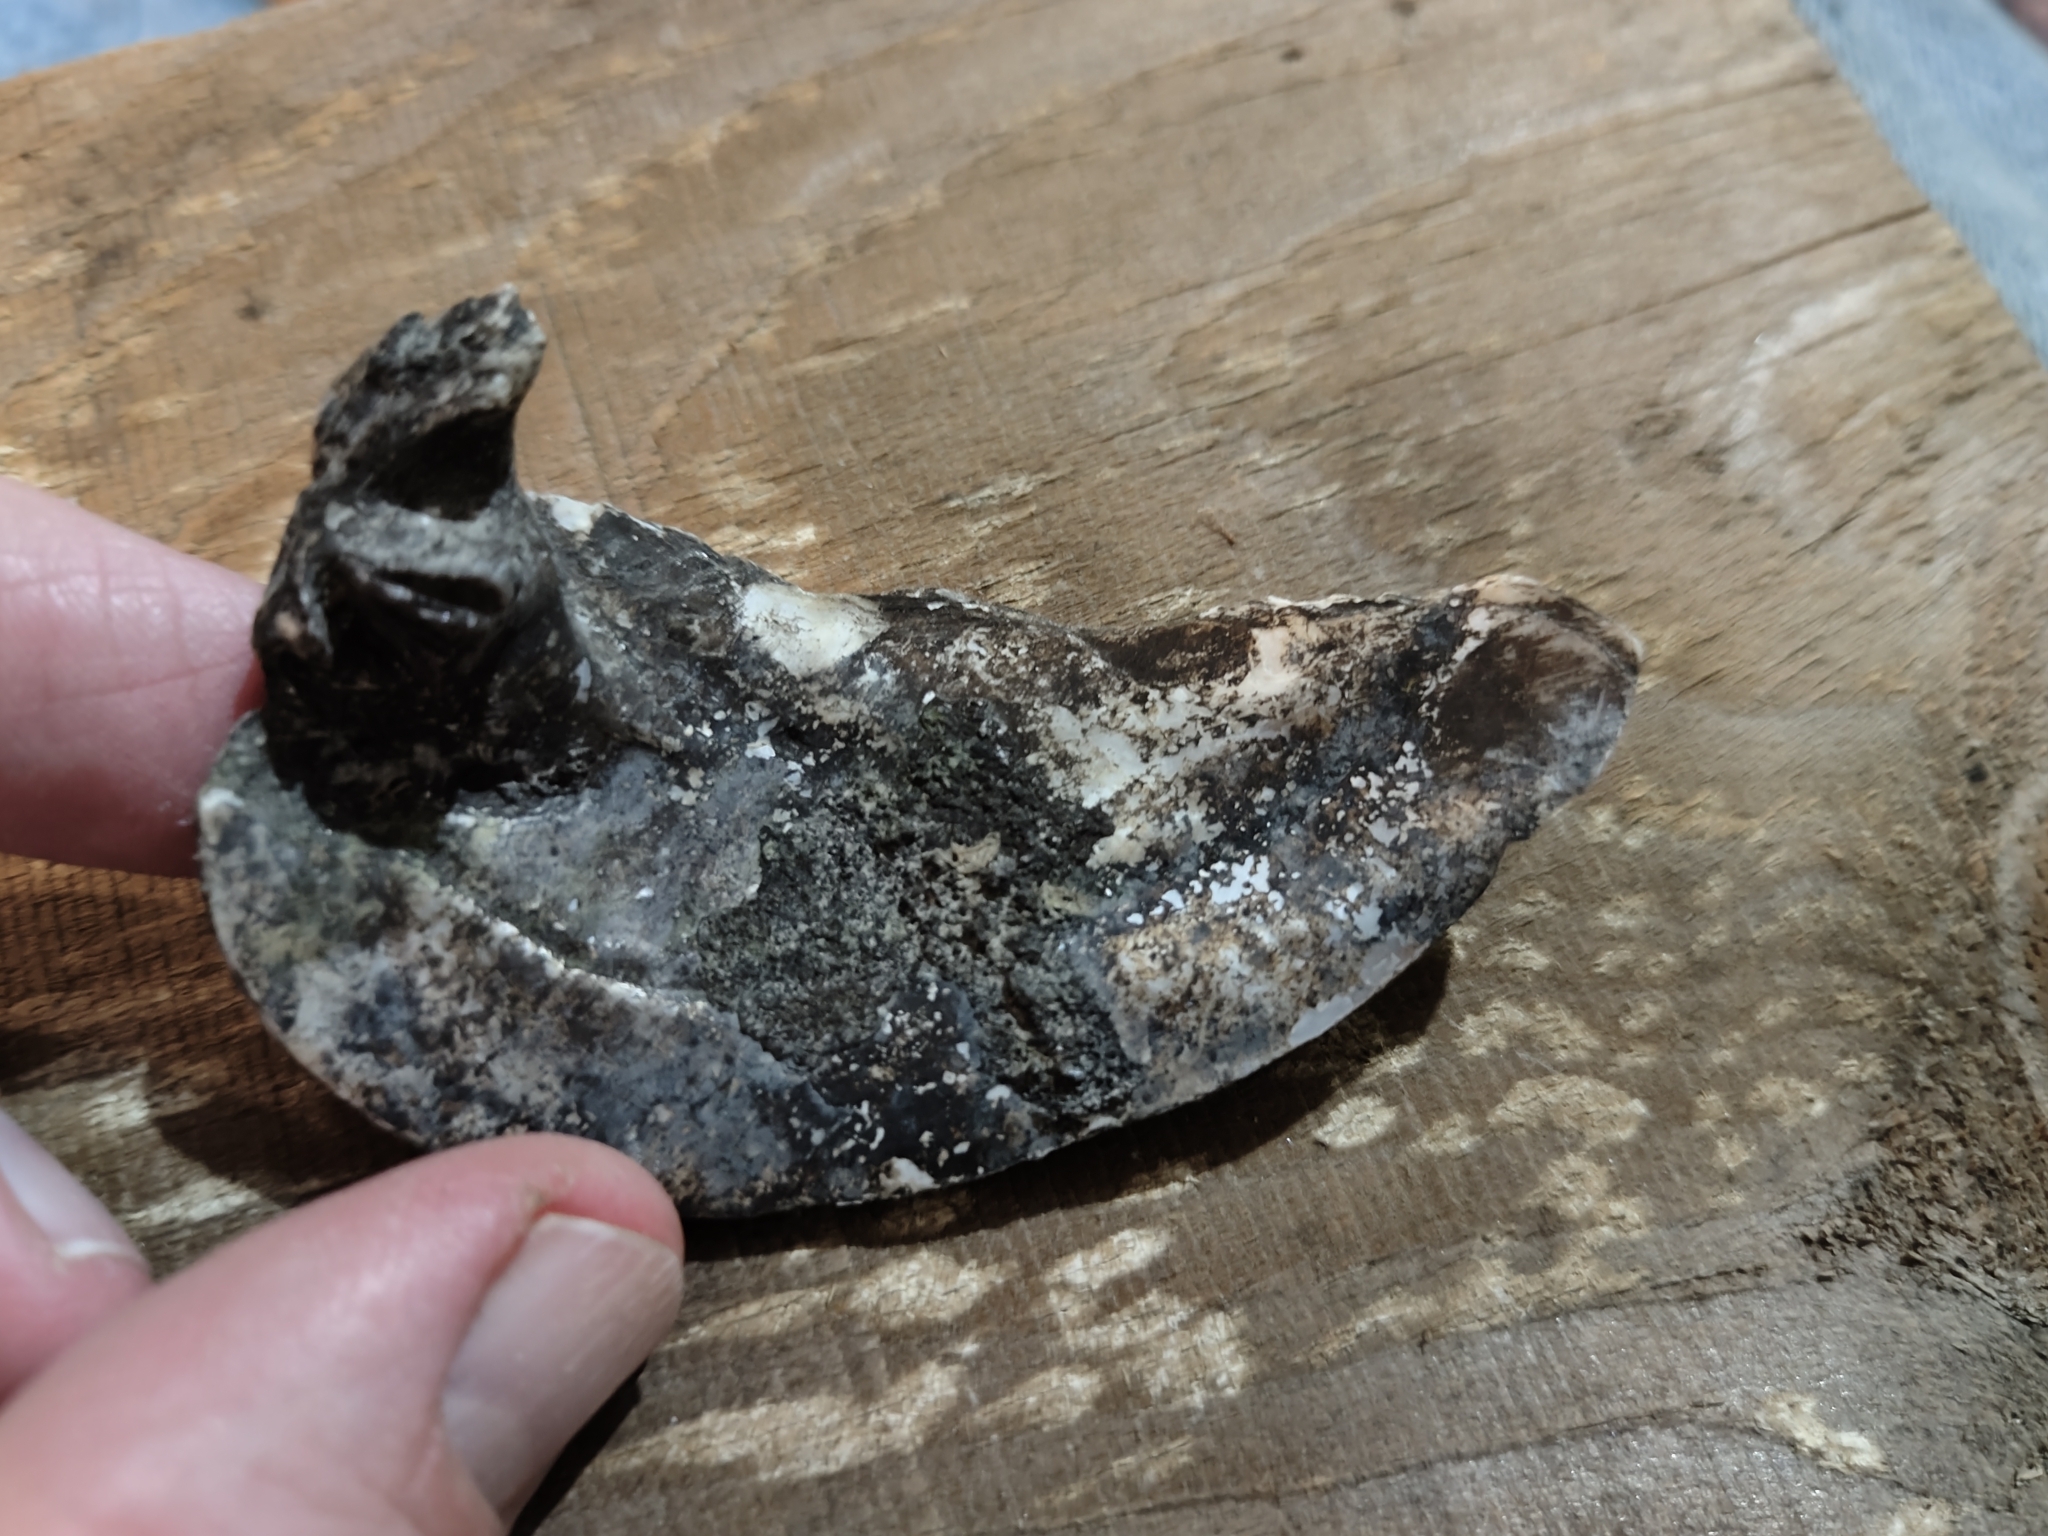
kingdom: Animalia
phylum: Mollusca
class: Bivalvia
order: Unionida
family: Unionidae
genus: Amblema
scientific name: Amblema plicata
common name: Threeridge
